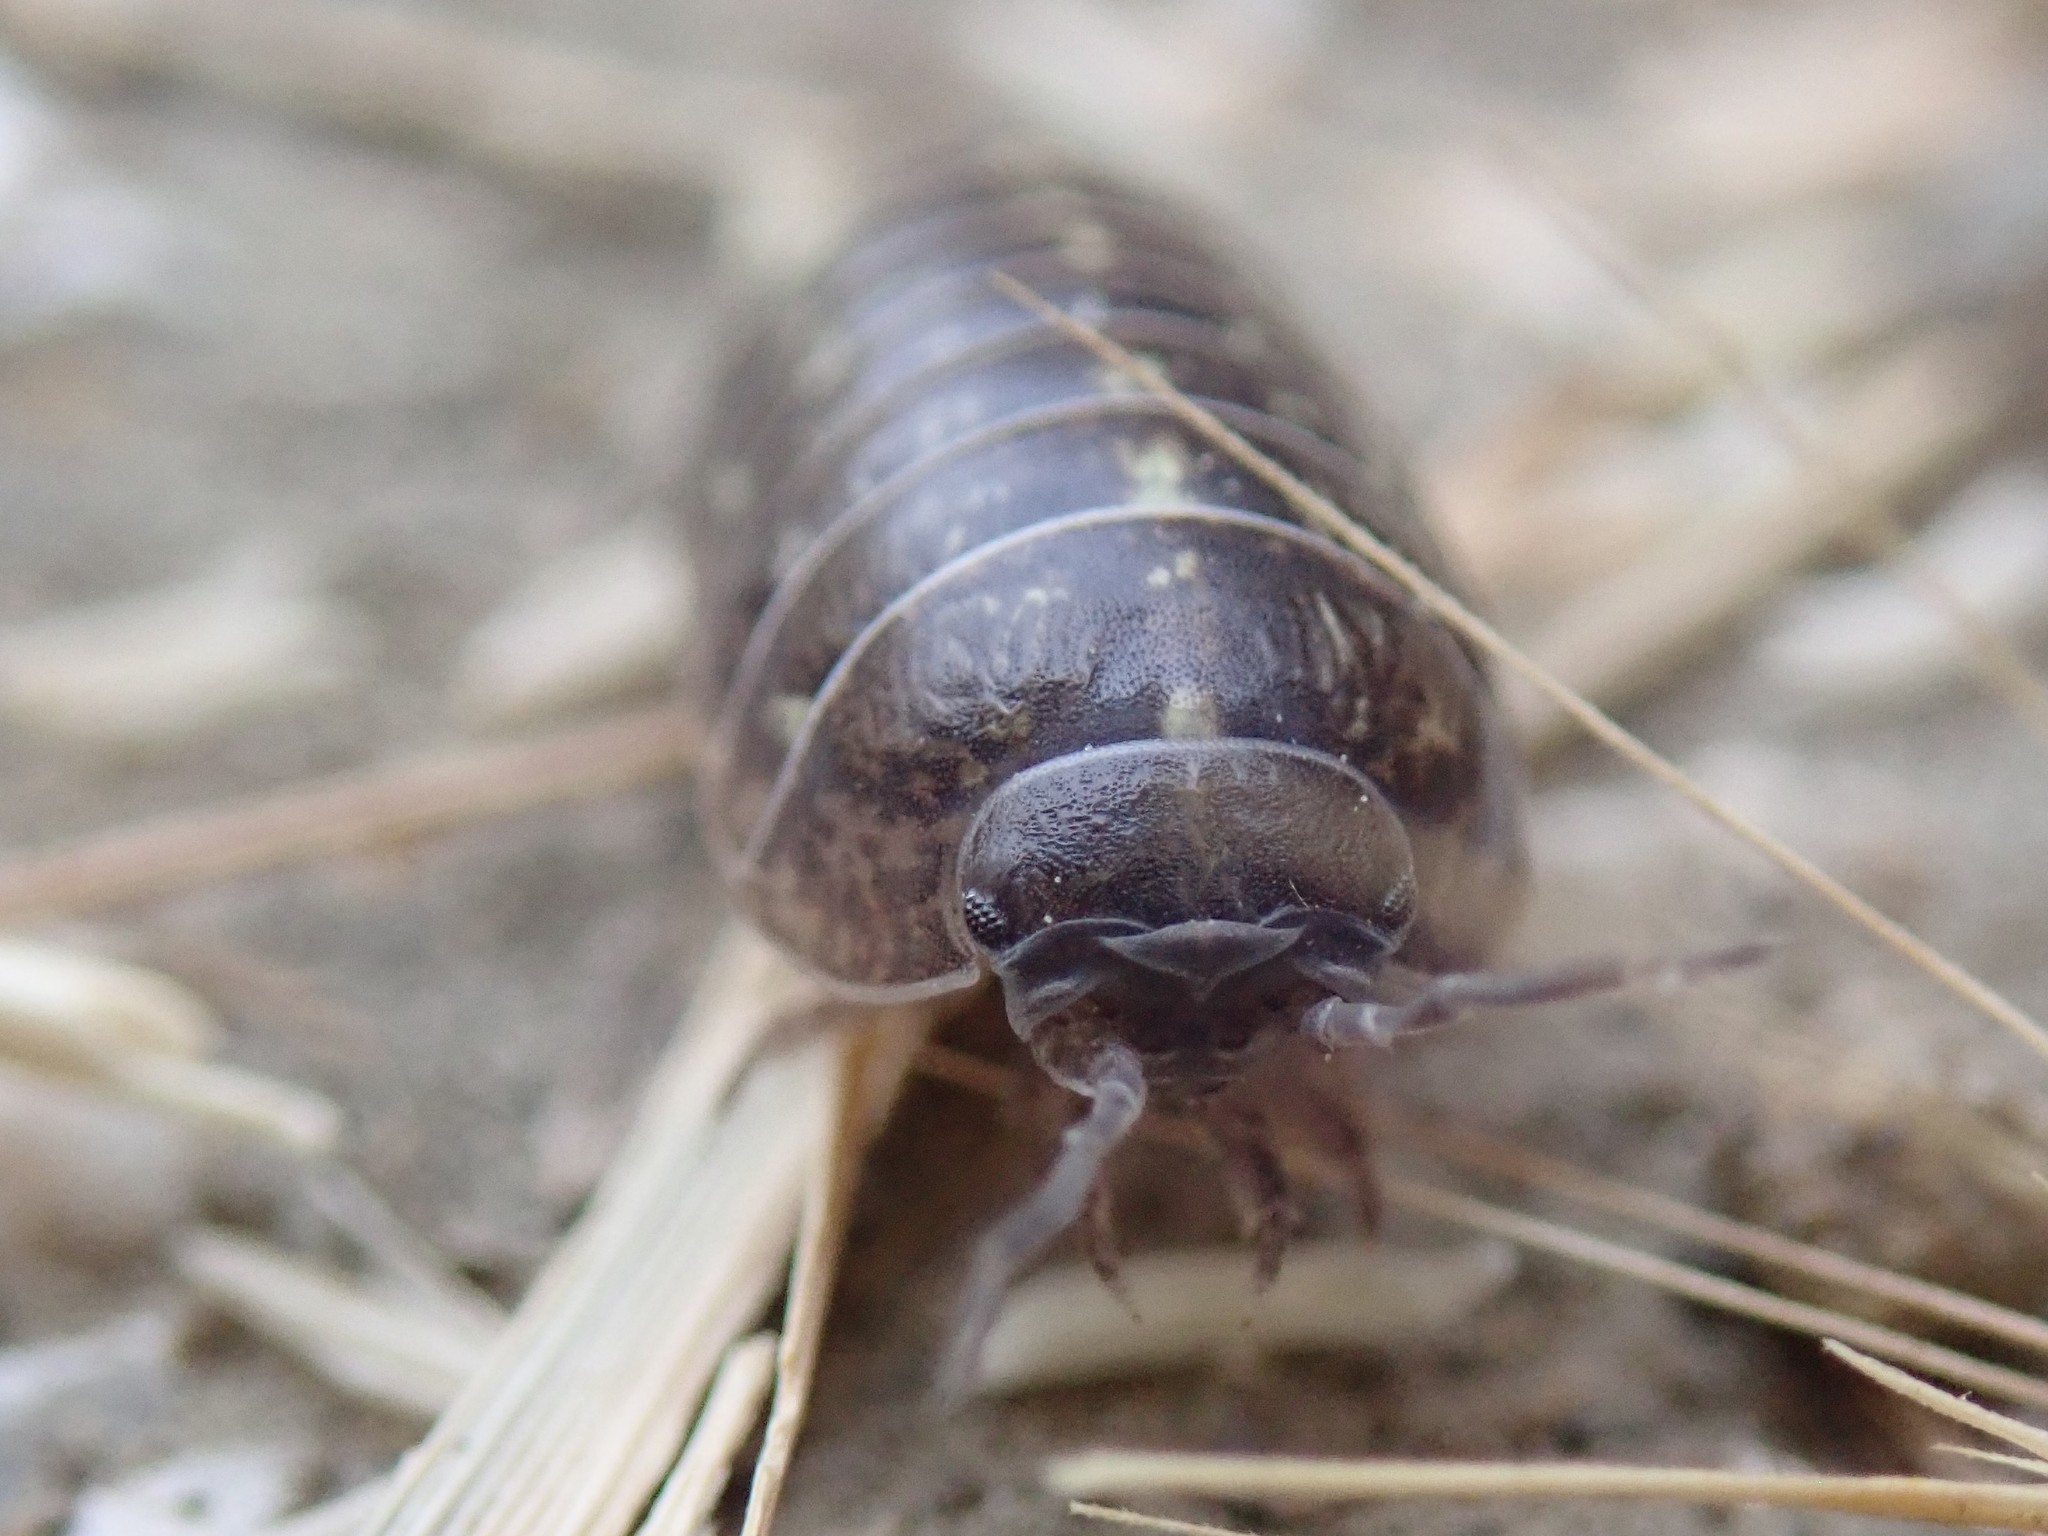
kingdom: Animalia
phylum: Arthropoda
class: Malacostraca
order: Isopoda
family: Armadillidiidae
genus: Armadillidium
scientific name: Armadillidium vulgare
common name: Common pill woodlouse
